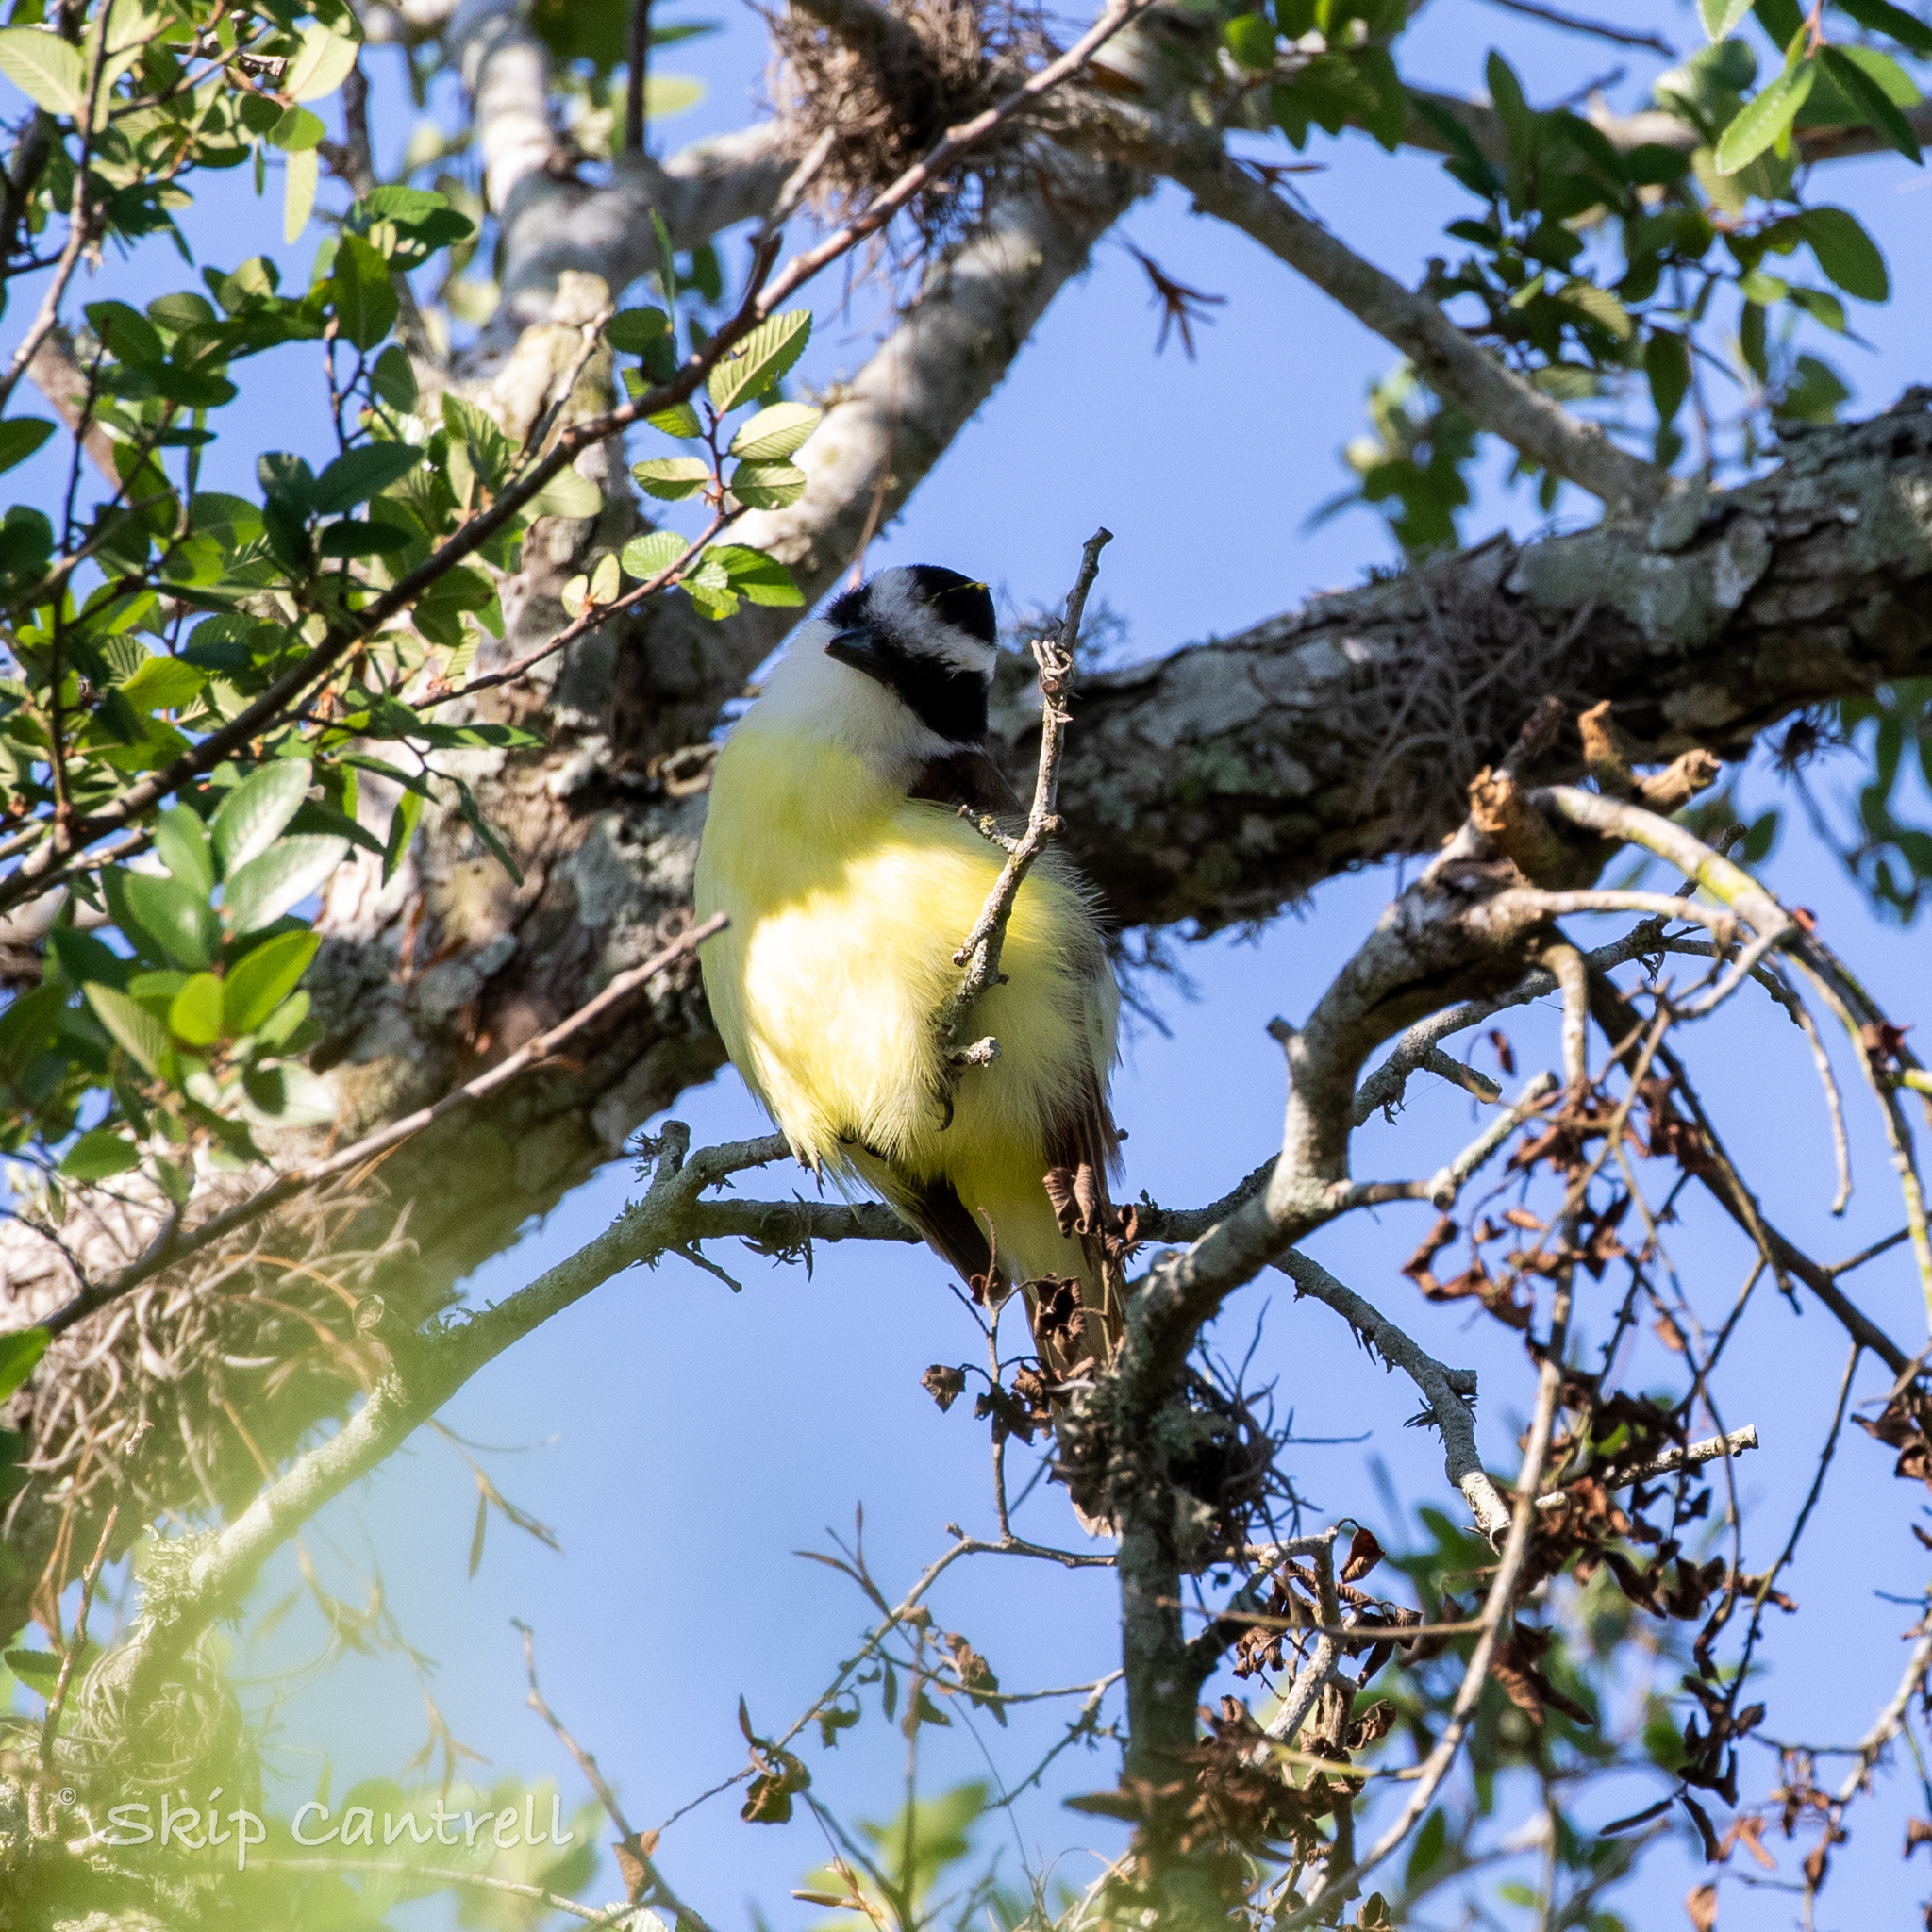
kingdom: Animalia
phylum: Chordata
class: Aves
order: Passeriformes
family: Tyrannidae
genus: Pitangus
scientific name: Pitangus sulphuratus
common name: Great kiskadee
